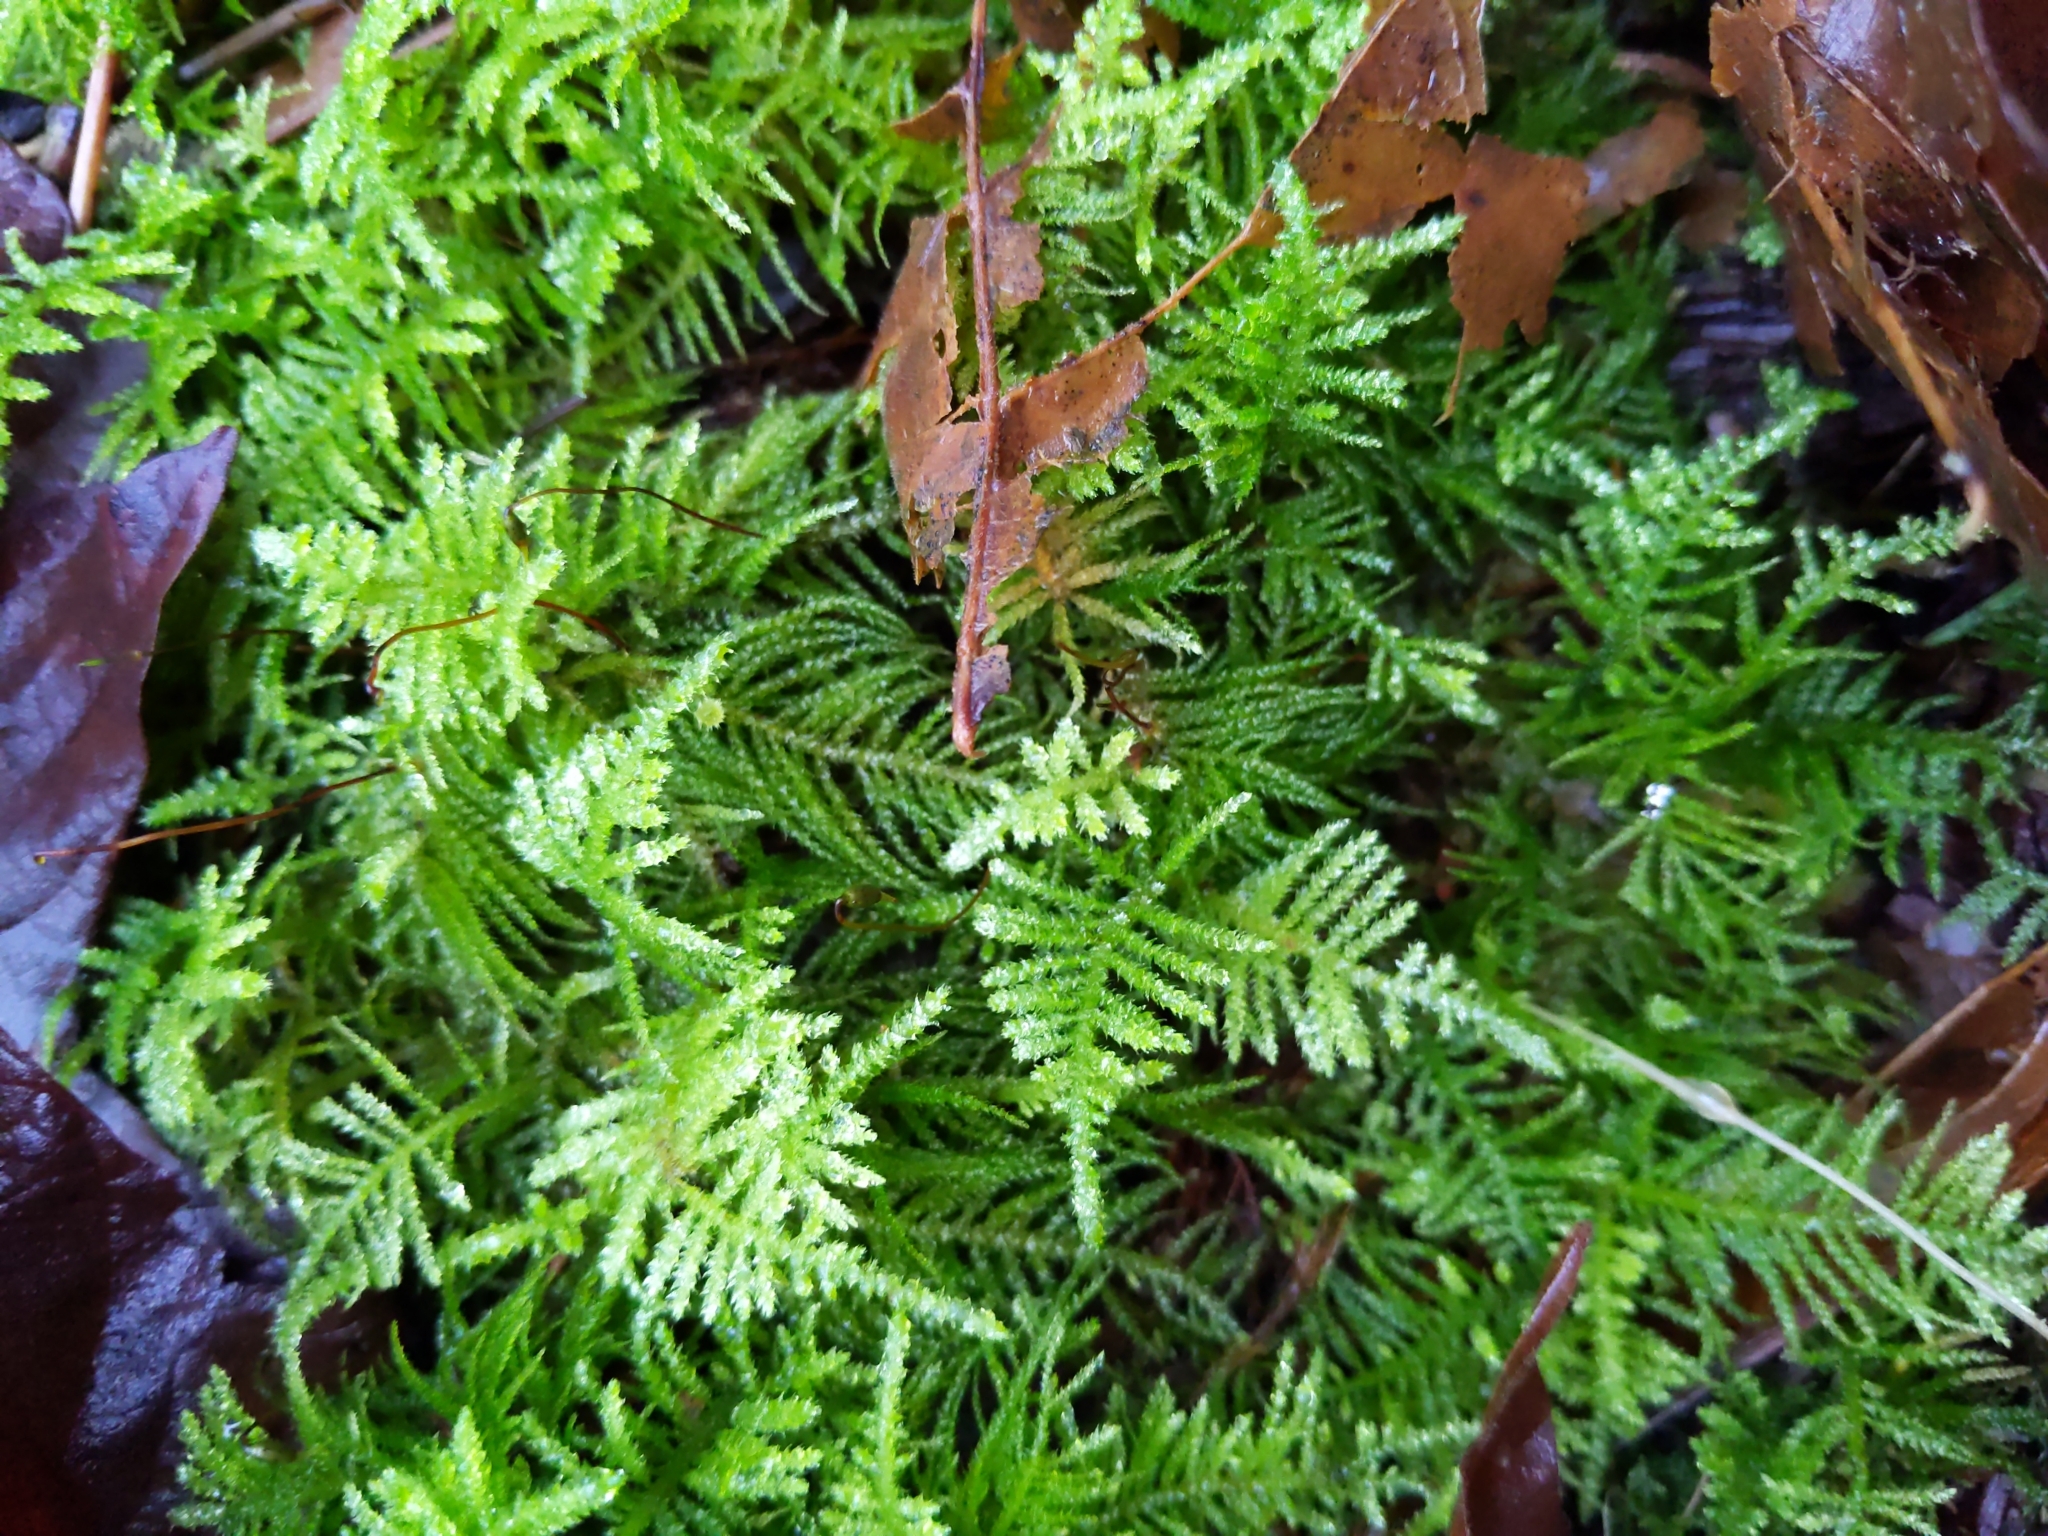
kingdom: Plantae
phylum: Bryophyta
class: Bryopsida
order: Hypnales
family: Brachytheciaceae
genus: Kindbergia
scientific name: Kindbergia oregana
